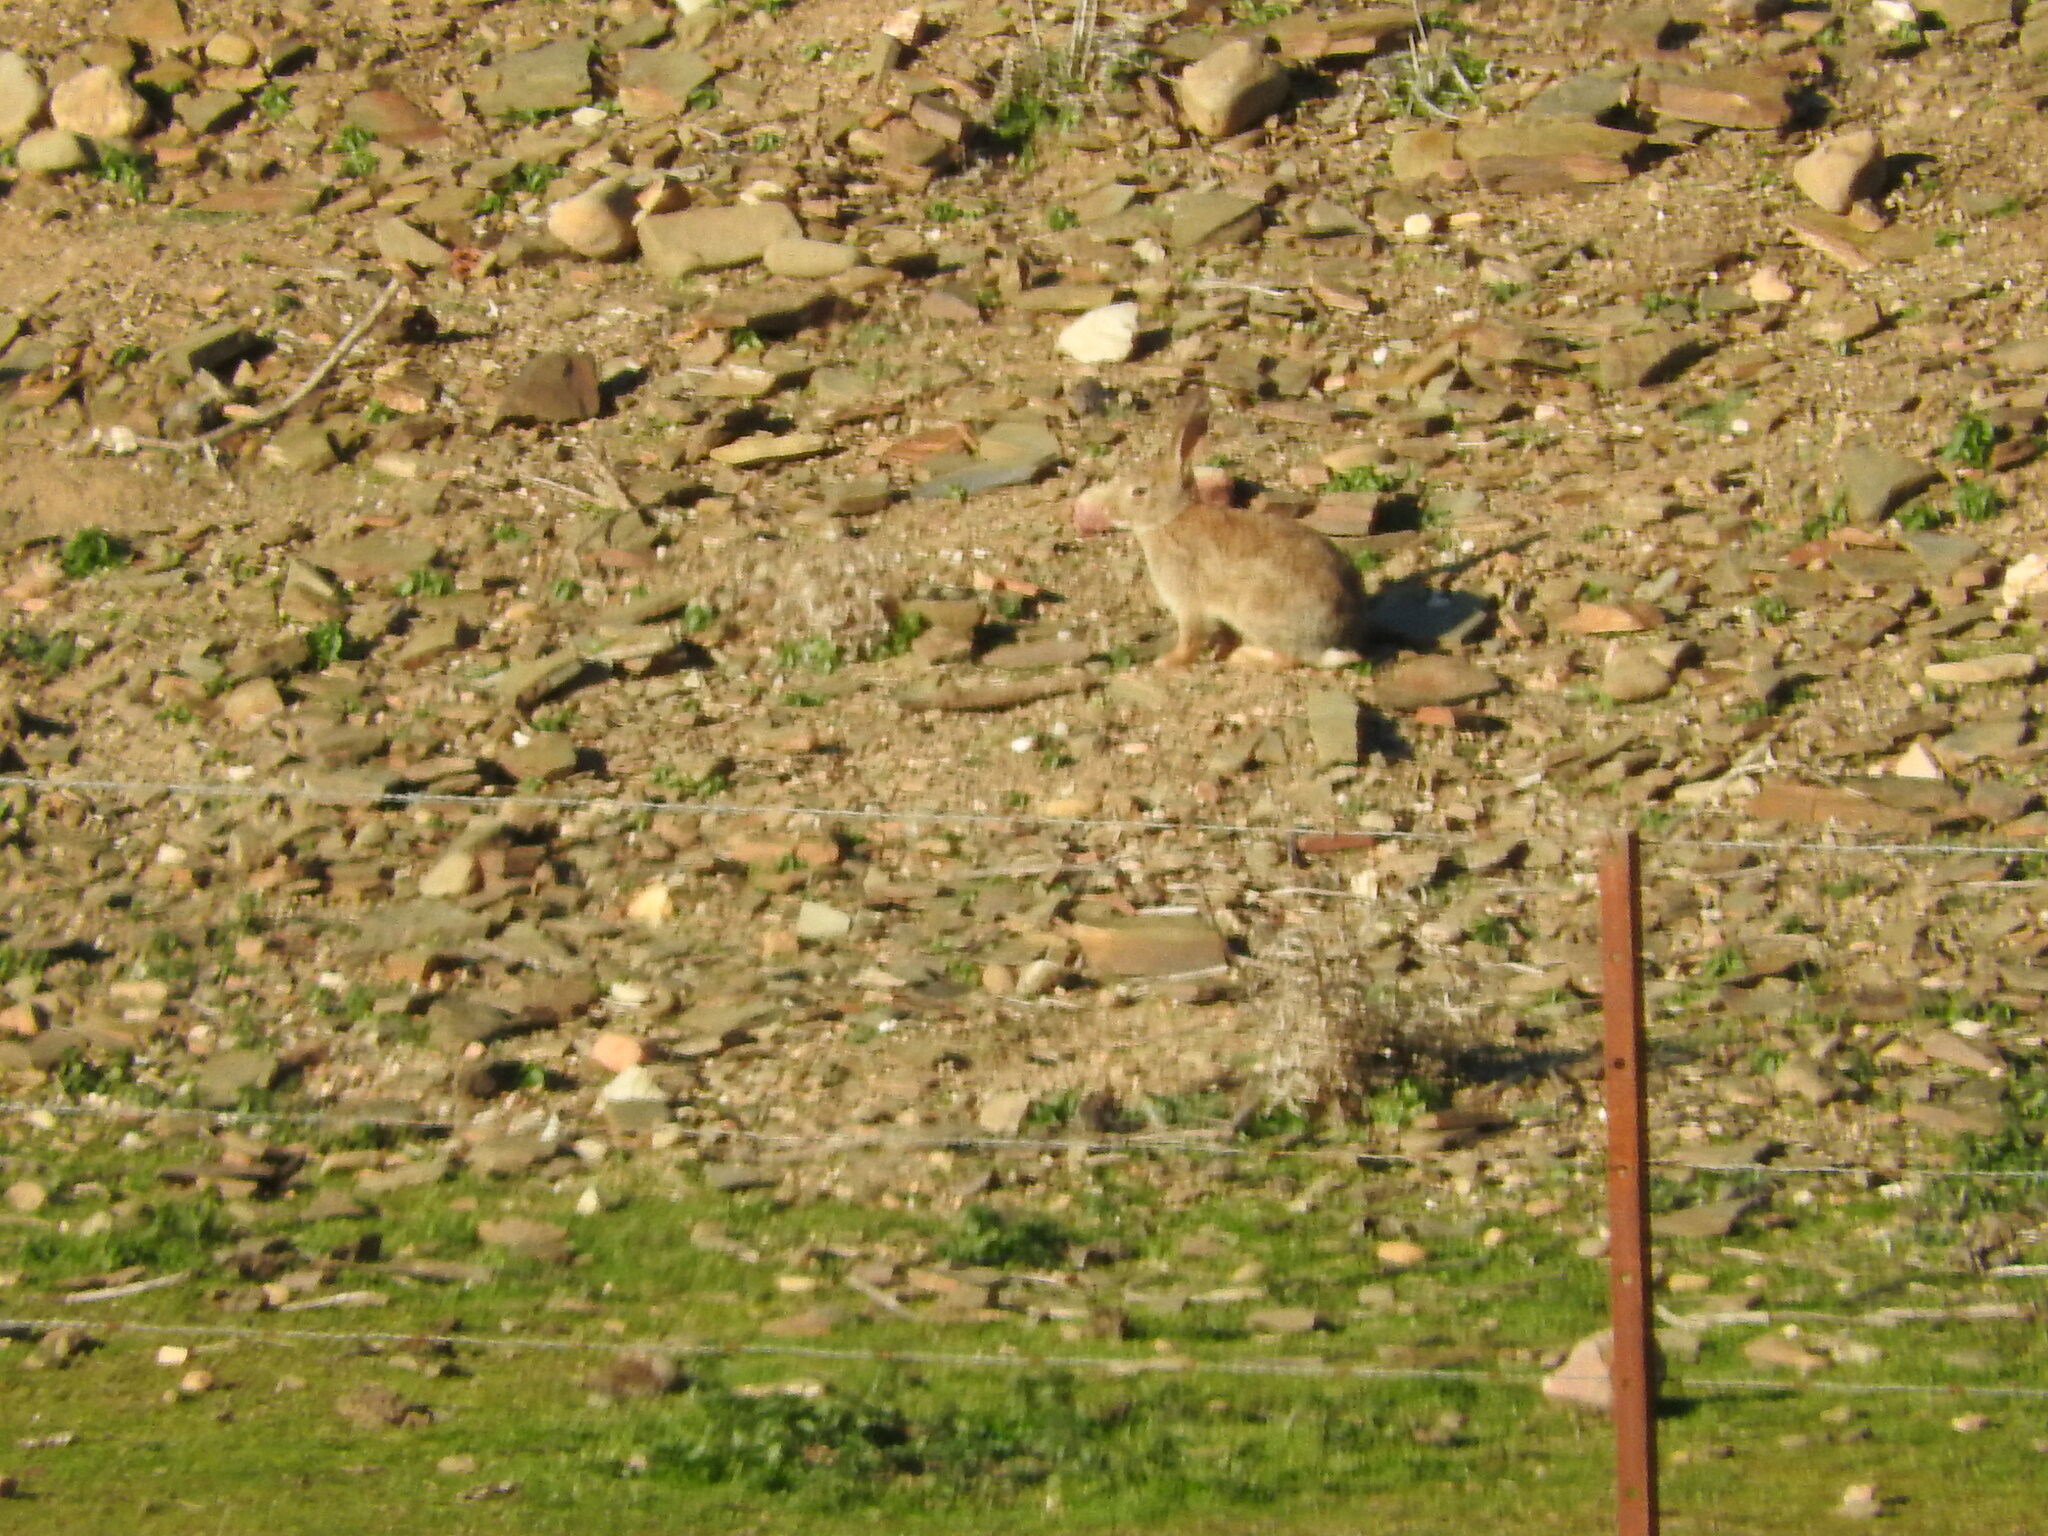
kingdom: Animalia
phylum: Chordata
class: Mammalia
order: Lagomorpha
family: Leporidae
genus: Oryctolagus
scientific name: Oryctolagus cuniculus
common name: European rabbit
